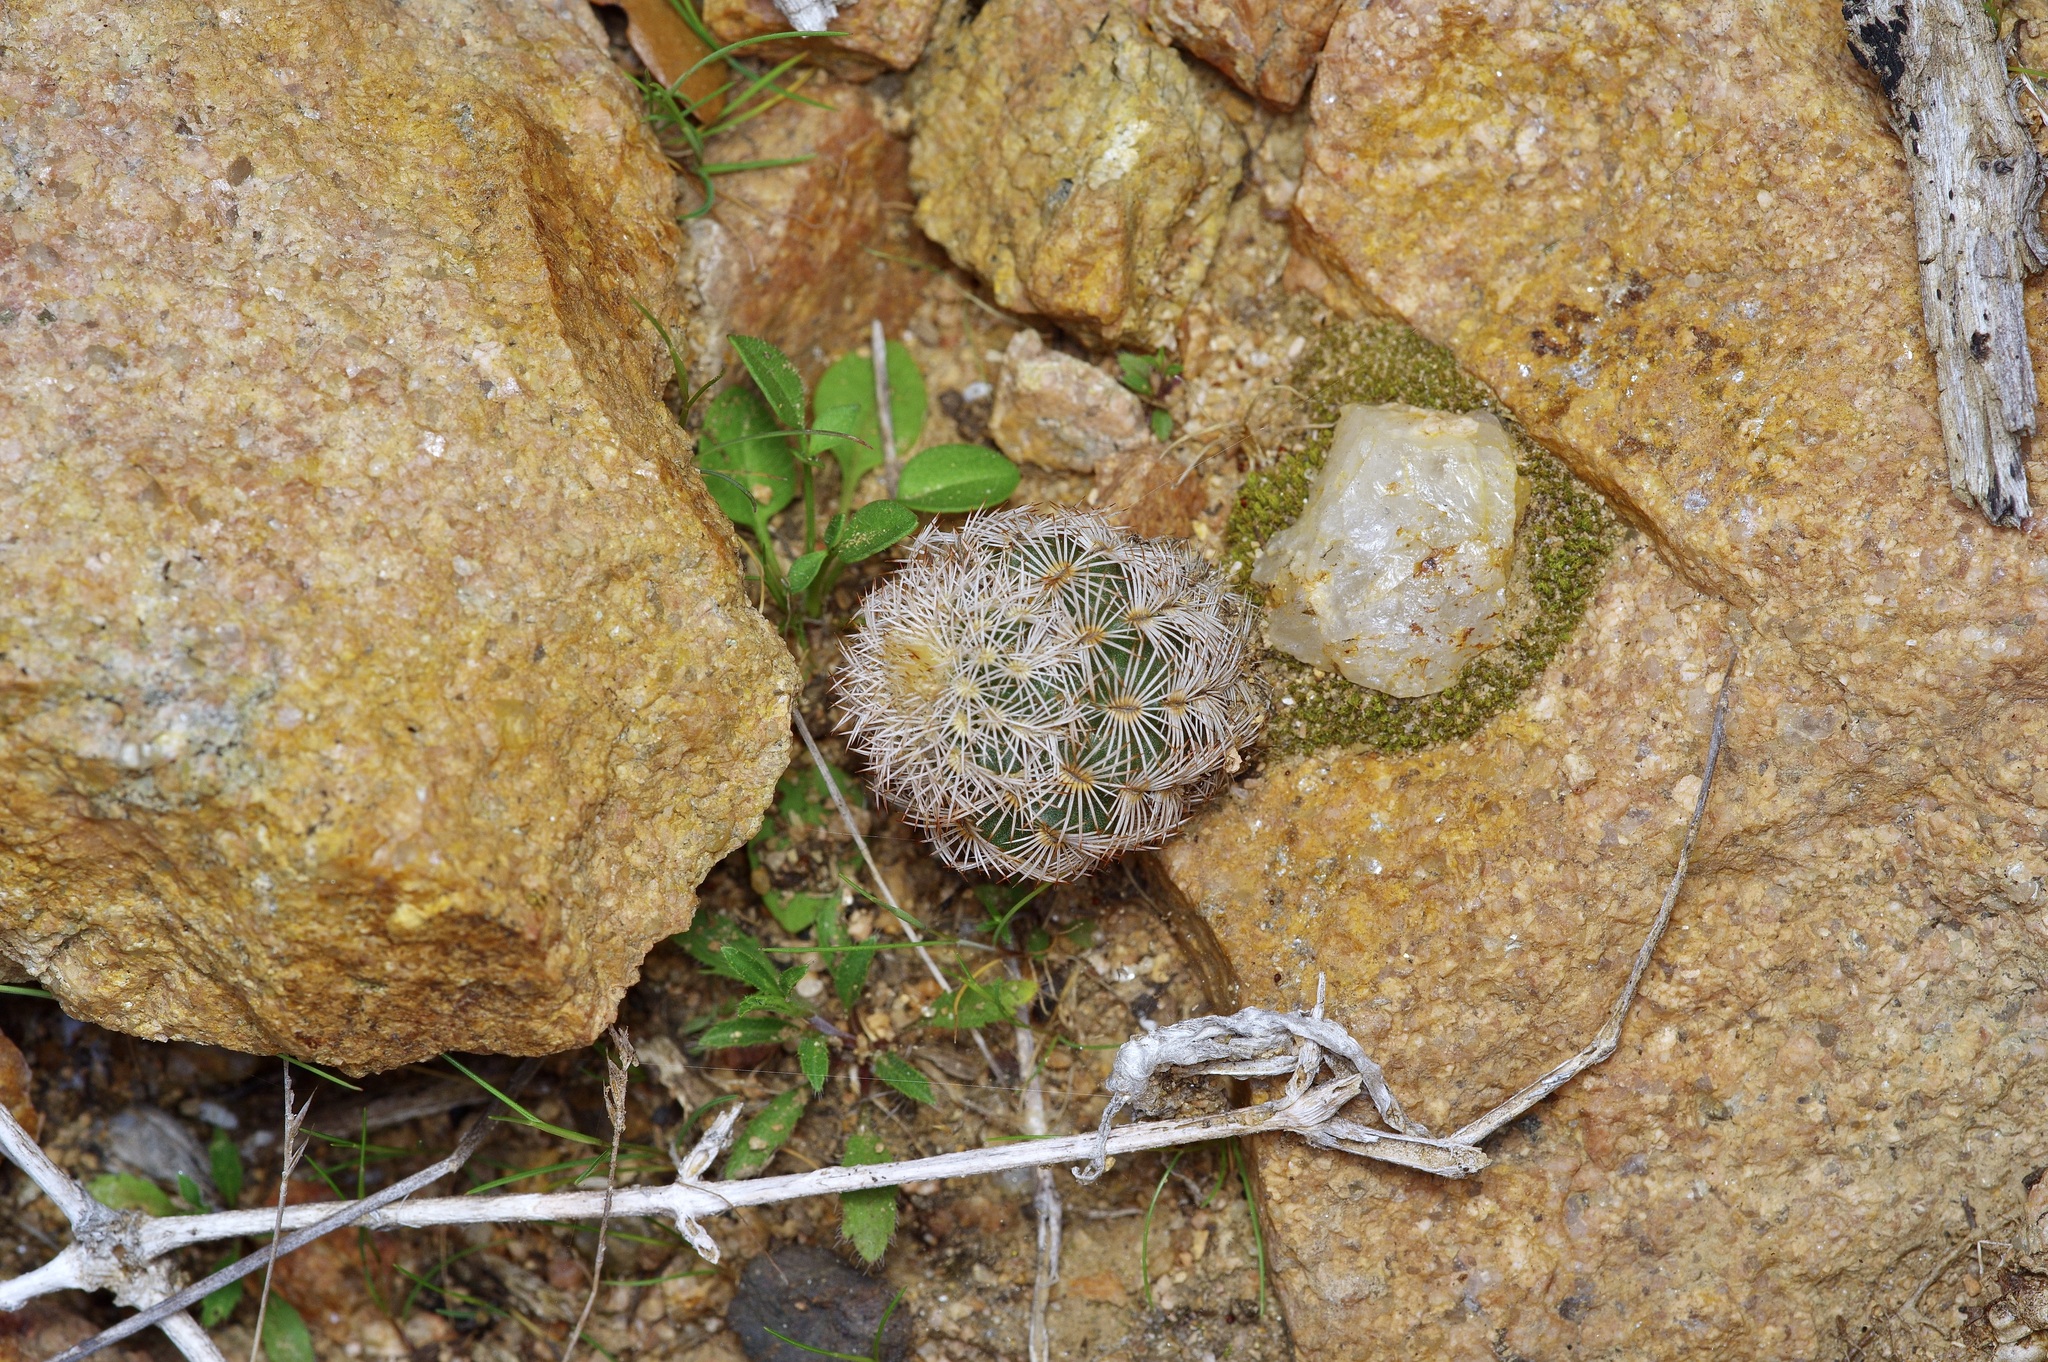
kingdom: Plantae
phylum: Tracheophyta
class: Magnoliopsida
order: Caryophyllales
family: Cactaceae
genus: Echinocereus
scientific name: Echinocereus reichenbachii
